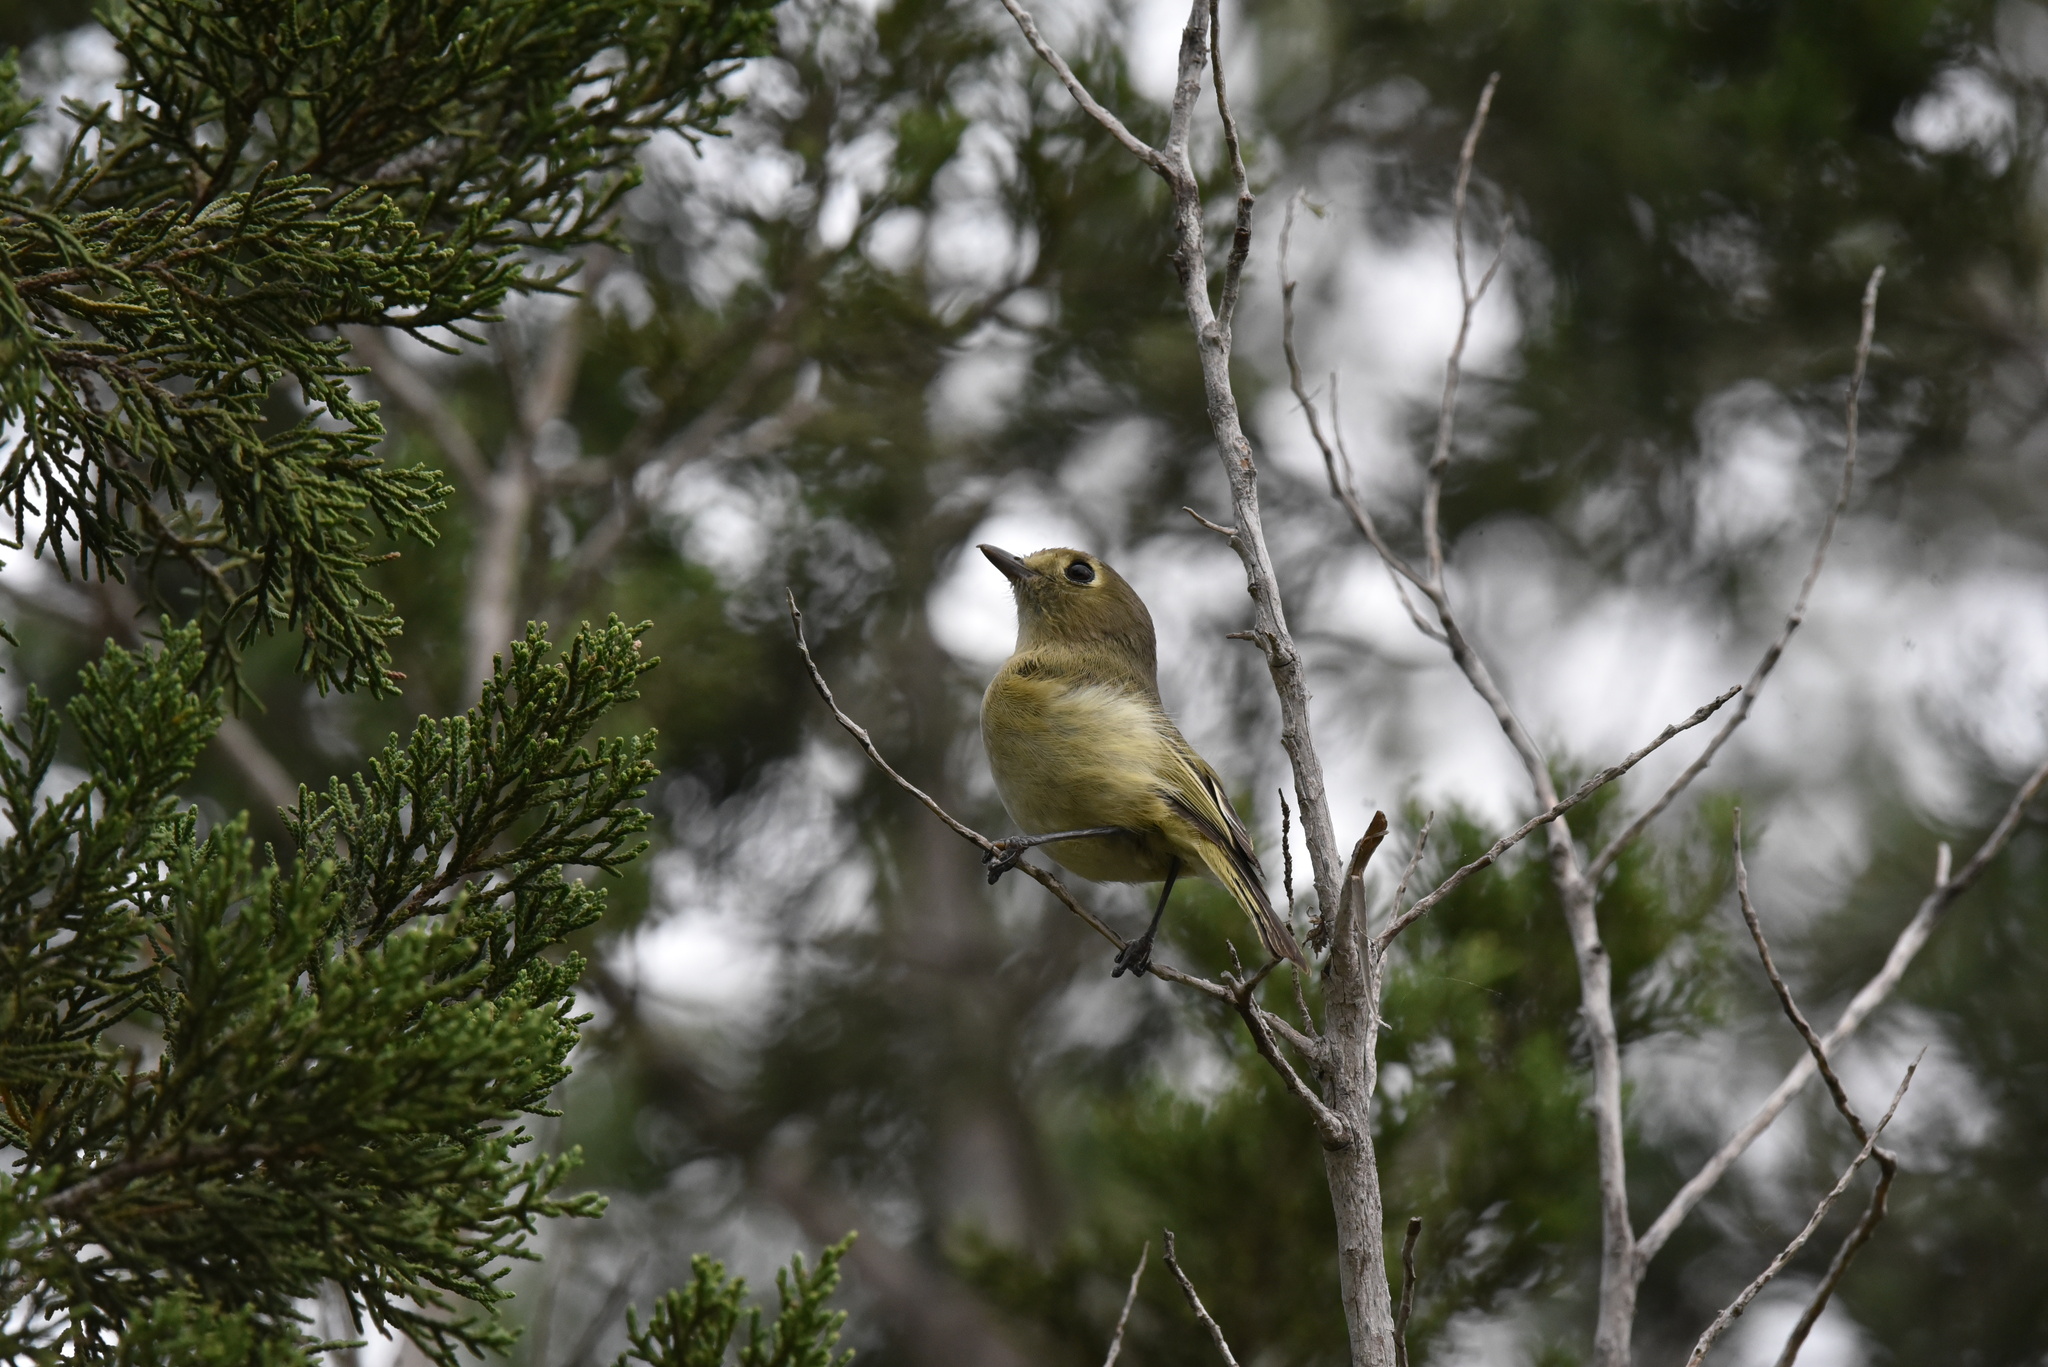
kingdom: Animalia
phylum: Chordata
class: Aves
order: Passeriformes
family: Vireonidae
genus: Vireo
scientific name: Vireo huttoni
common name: Hutton's vireo
